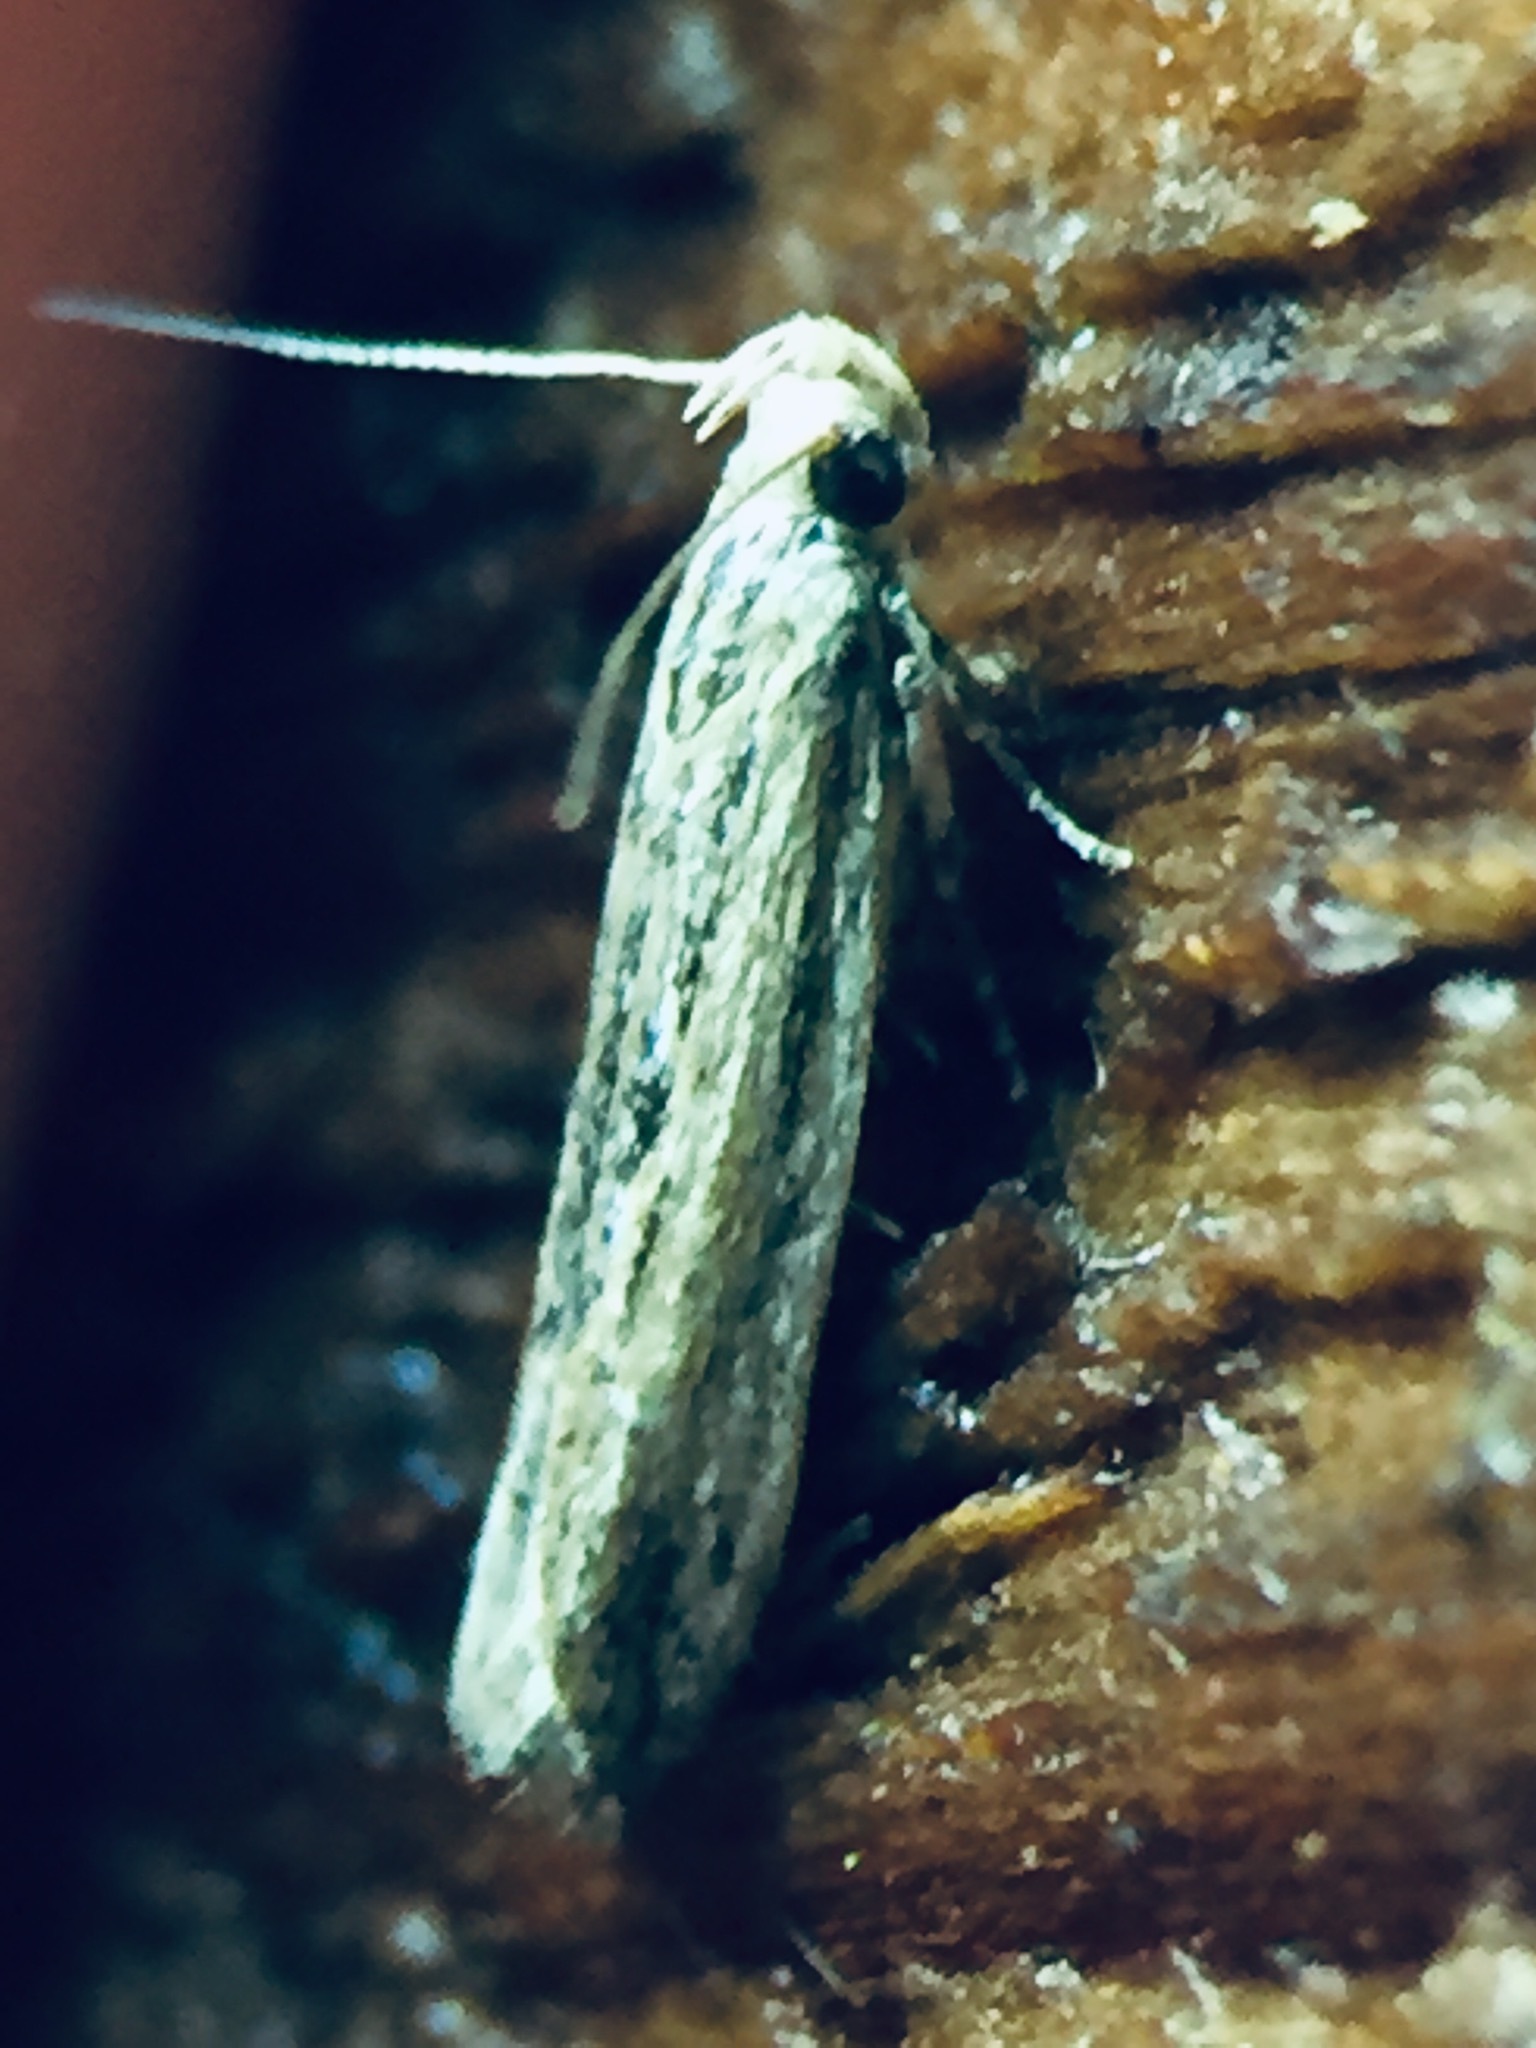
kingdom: Animalia
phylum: Arthropoda
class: Insecta
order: Lepidoptera
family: Gelechiidae
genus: Symmetrischema
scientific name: Symmetrischema striatella
